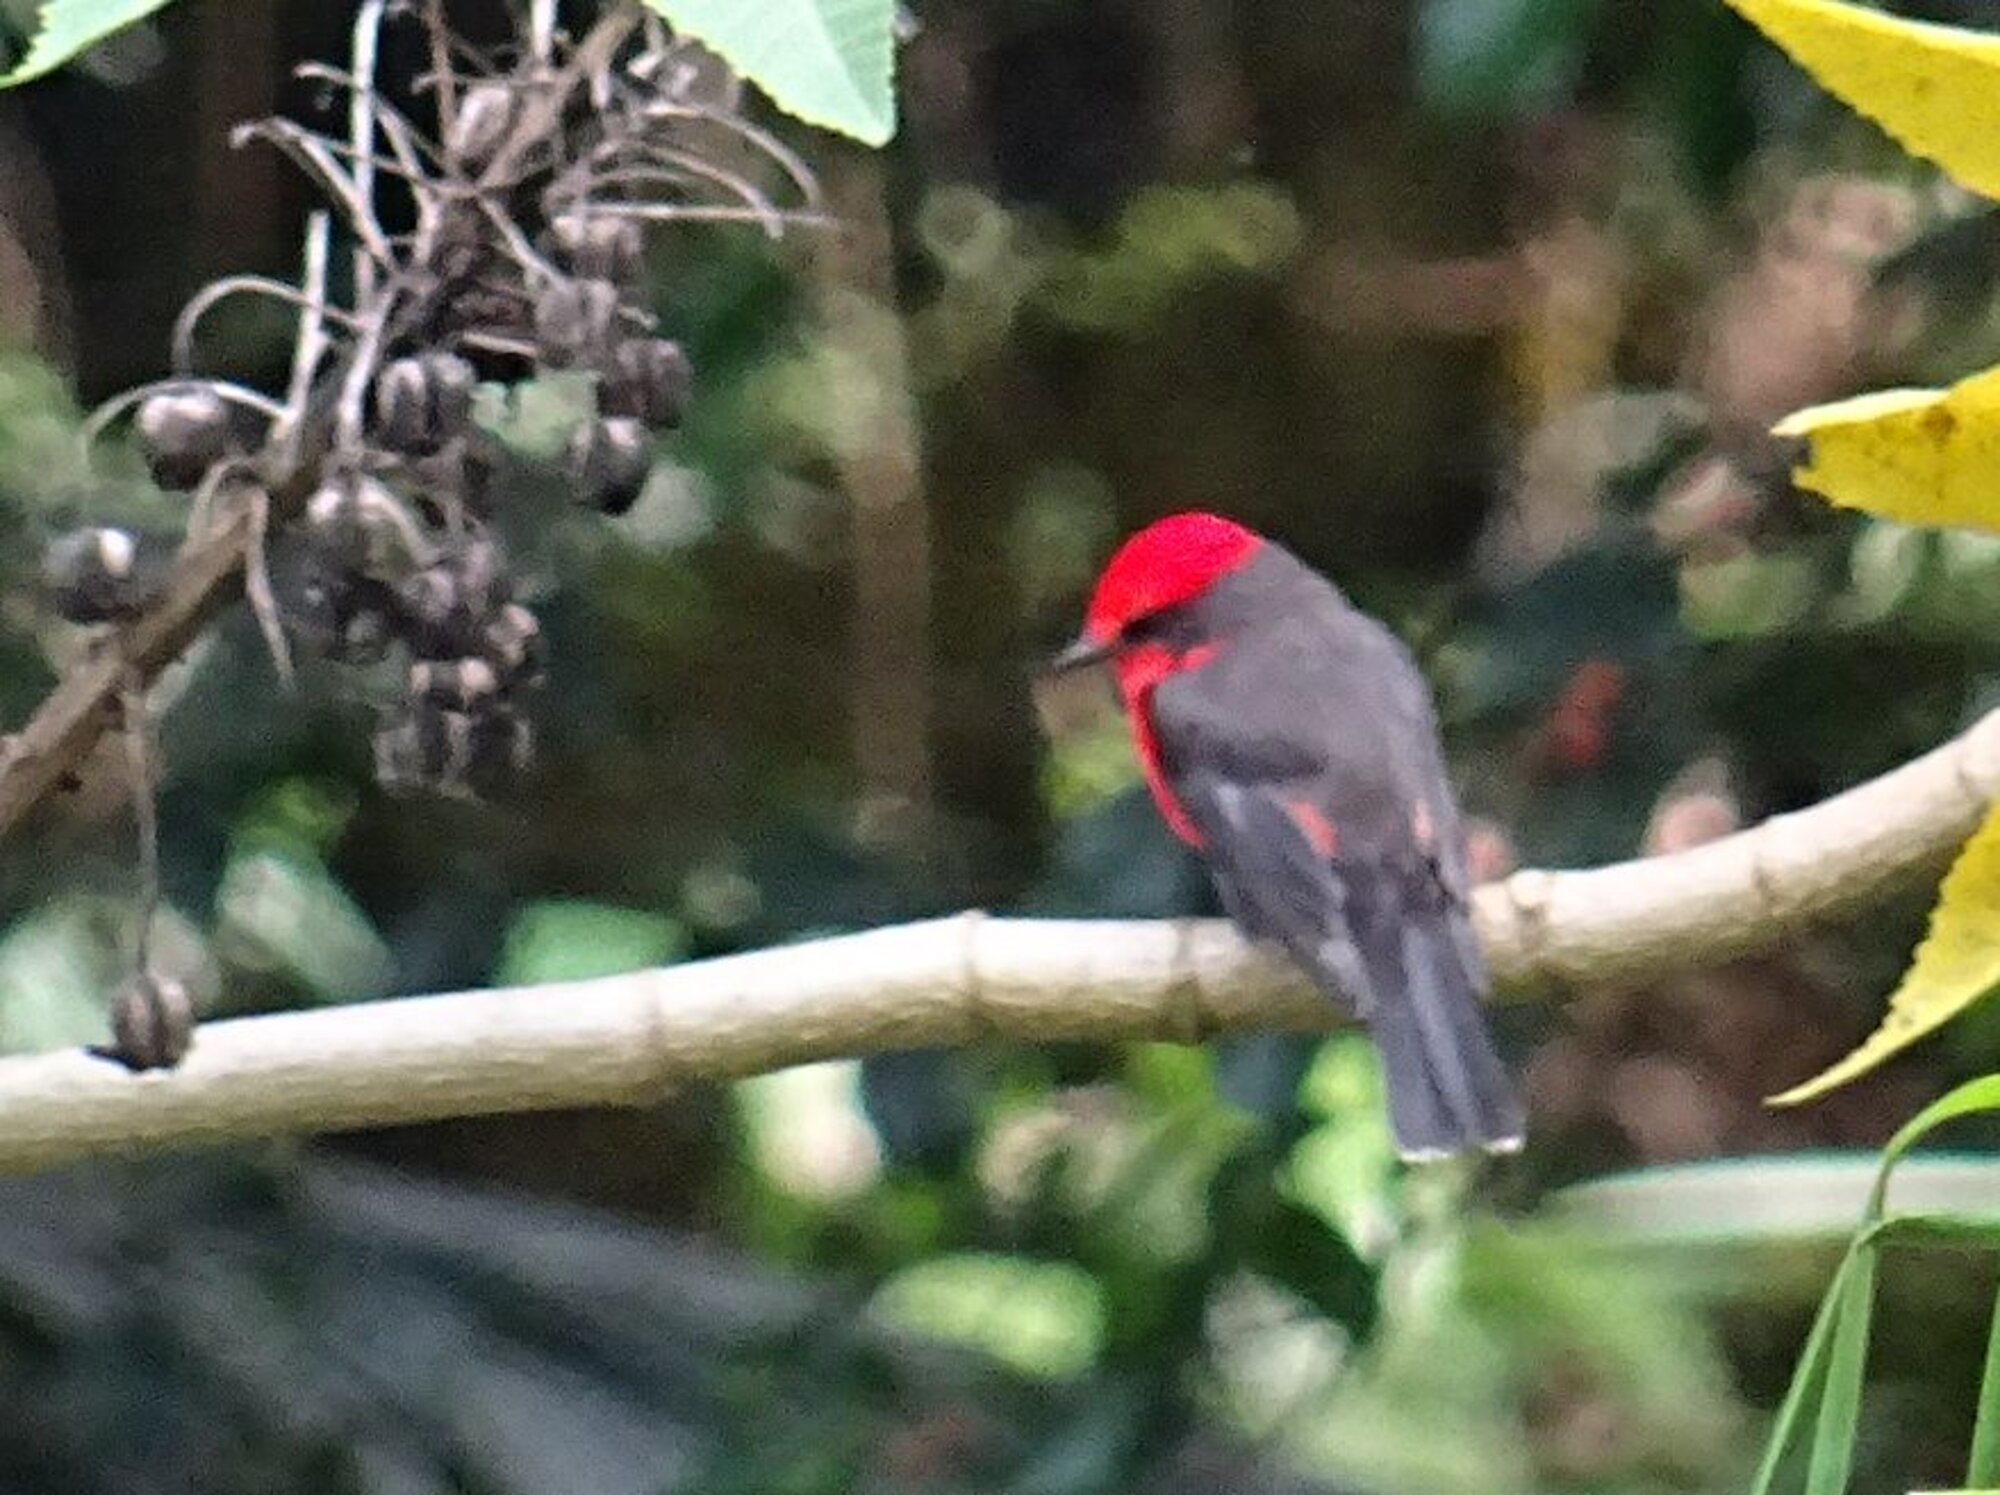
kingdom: Animalia
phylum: Chordata
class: Aves
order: Passeriformes
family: Tyrannidae
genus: Pyrocephalus
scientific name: Pyrocephalus rubinus
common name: Vermilion flycatcher
